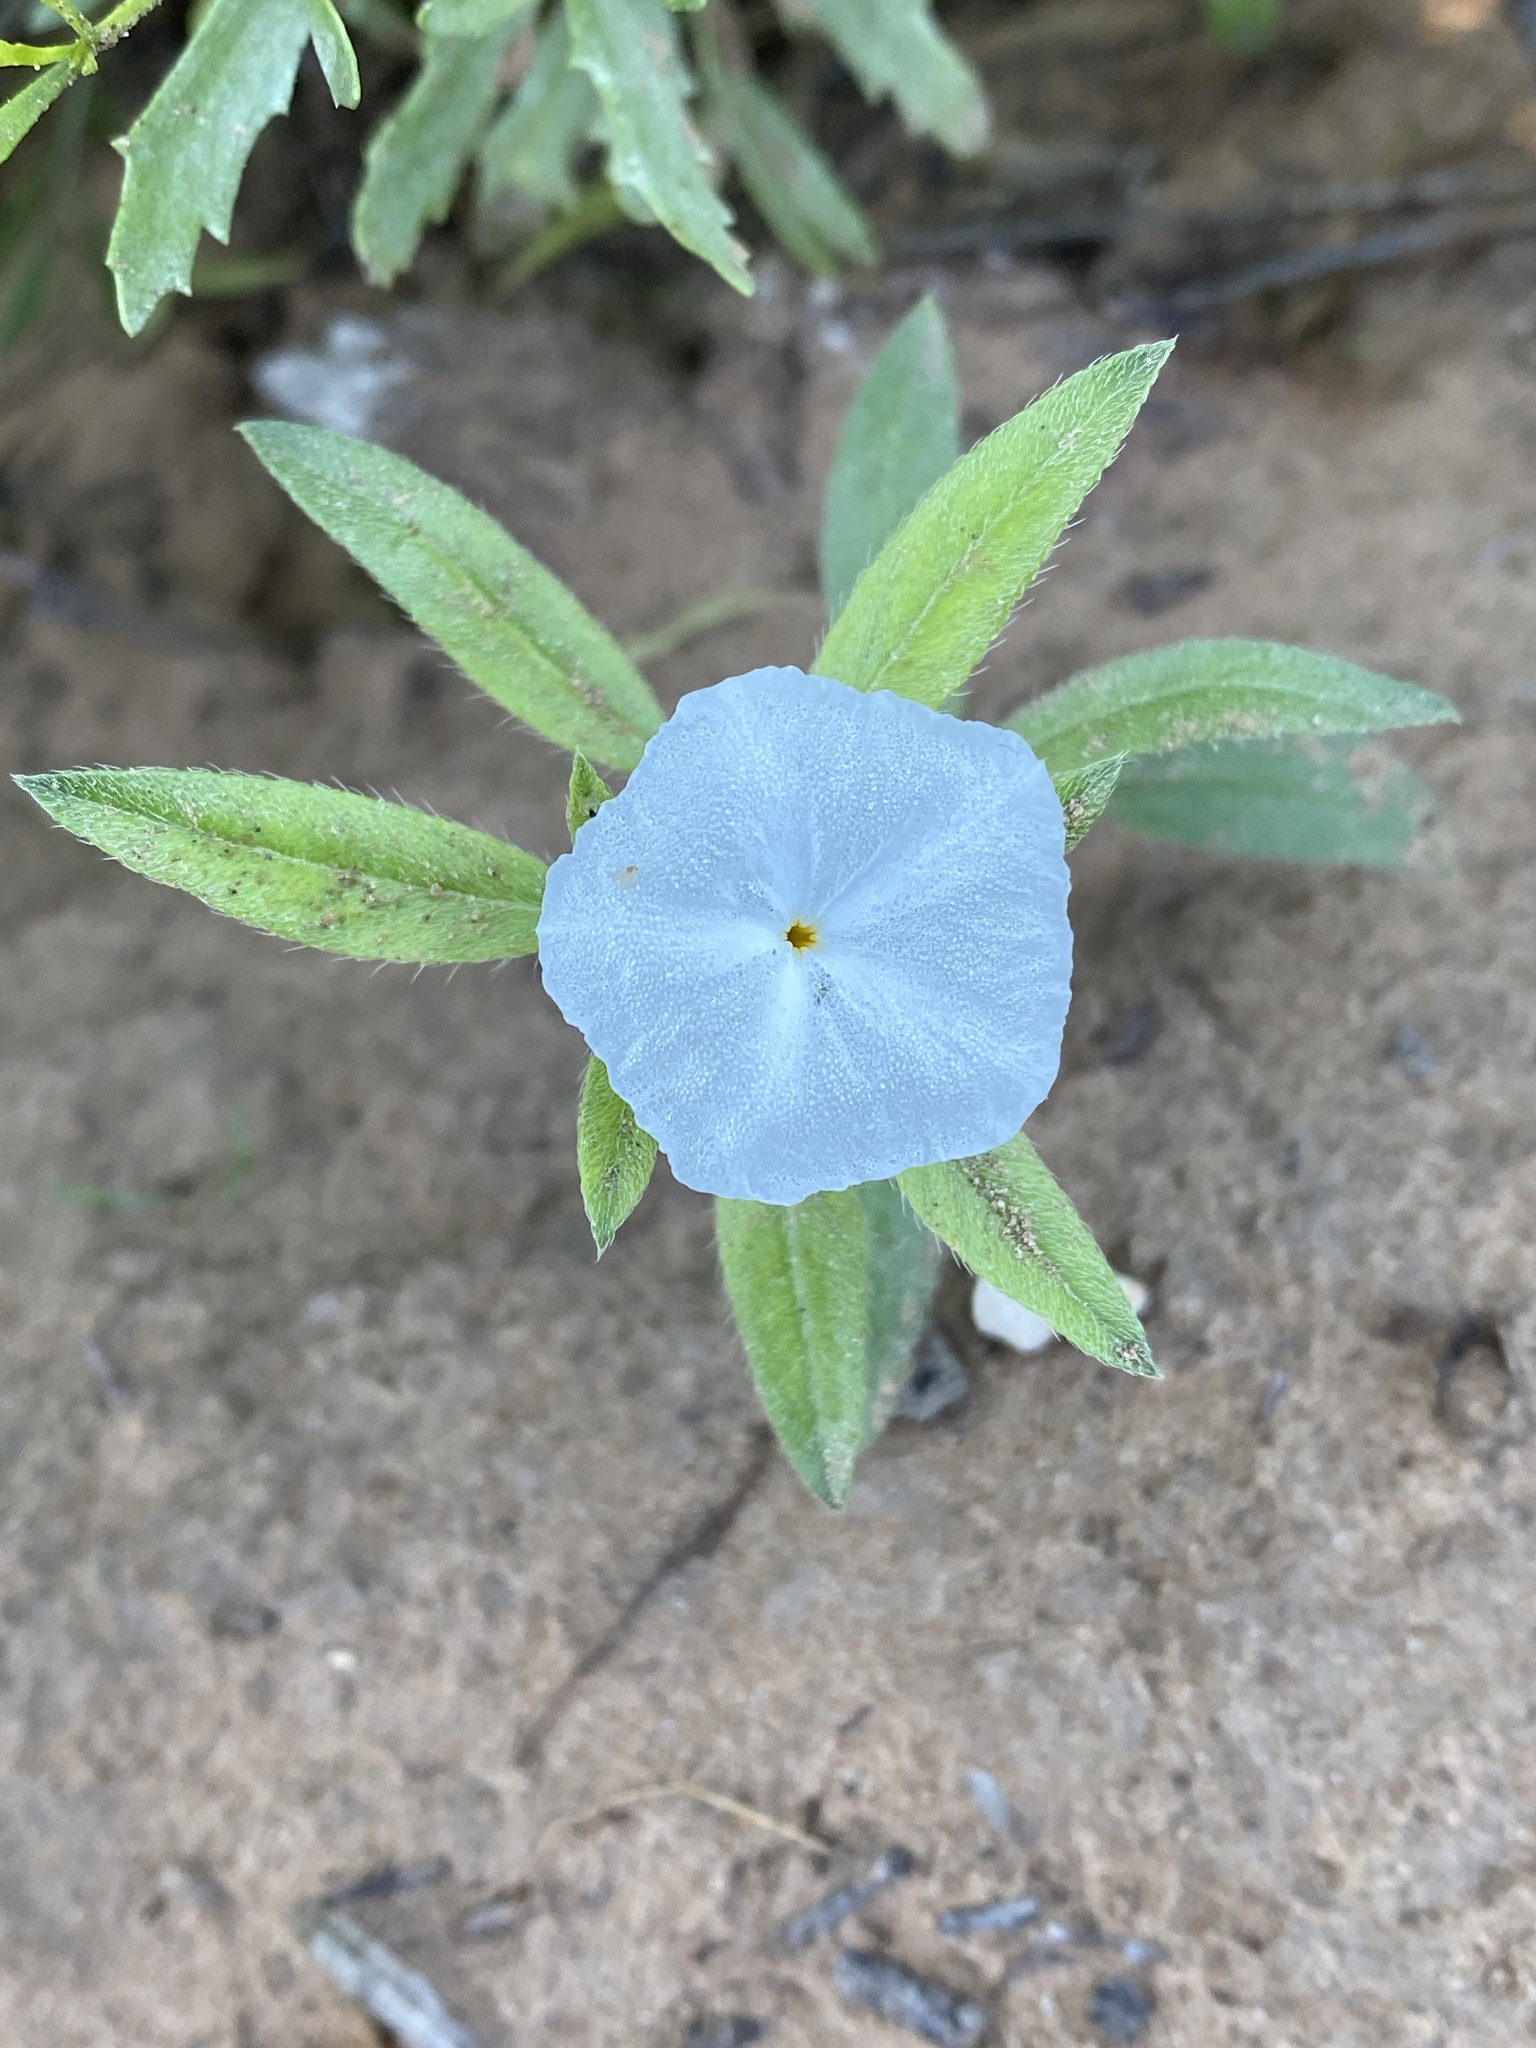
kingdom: Plantae
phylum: Tracheophyta
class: Magnoliopsida
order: Boraginales
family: Heliotropiaceae
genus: Euploca
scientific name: Euploca convolvulacea
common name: Bindweed heliotrope
